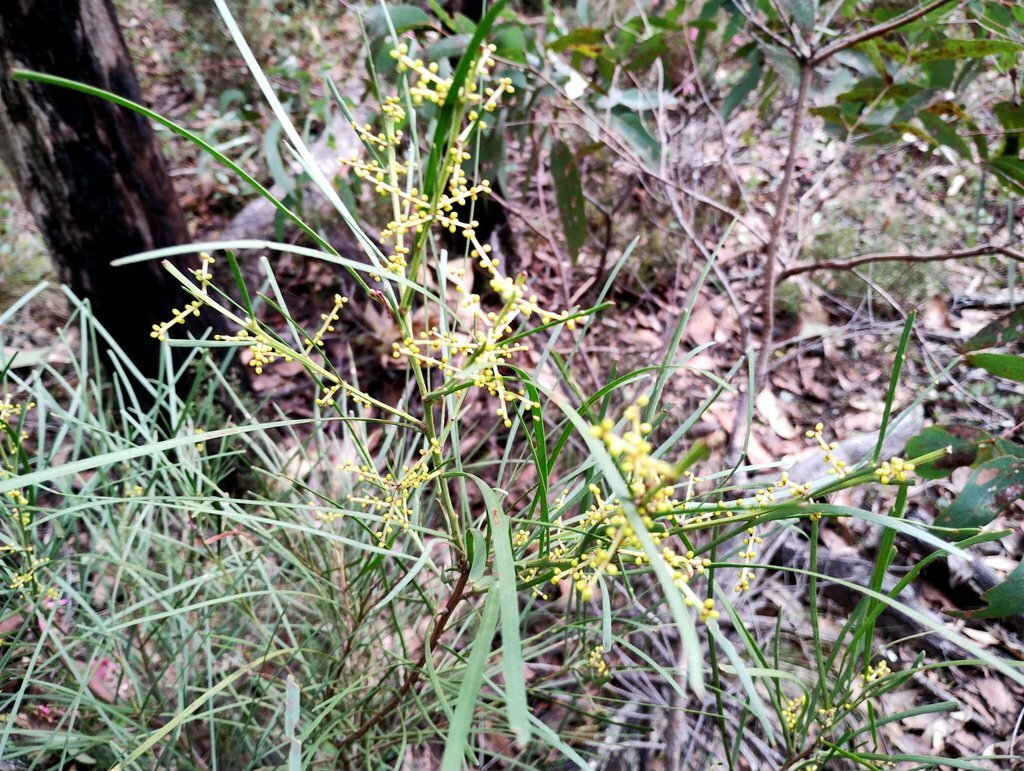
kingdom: Plantae
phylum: Tracheophyta
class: Magnoliopsida
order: Fabales
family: Fabaceae
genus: Acacia
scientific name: Acacia mucronata
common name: Variable sallow wattle
